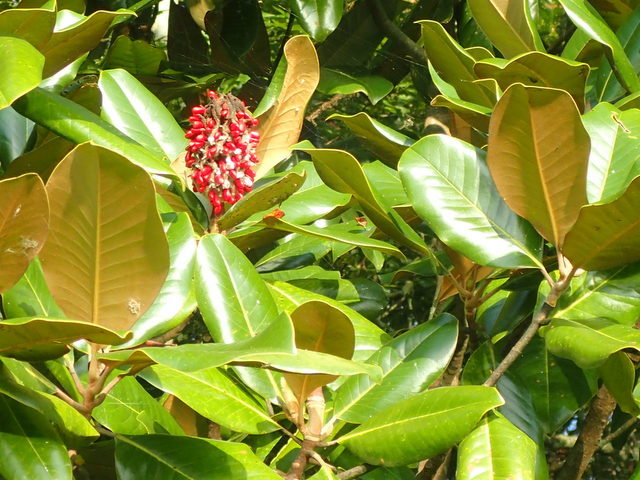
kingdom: Plantae
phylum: Tracheophyta
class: Magnoliopsida
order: Magnoliales
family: Magnoliaceae
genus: Magnolia
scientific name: Magnolia grandiflora
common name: Southern magnolia
